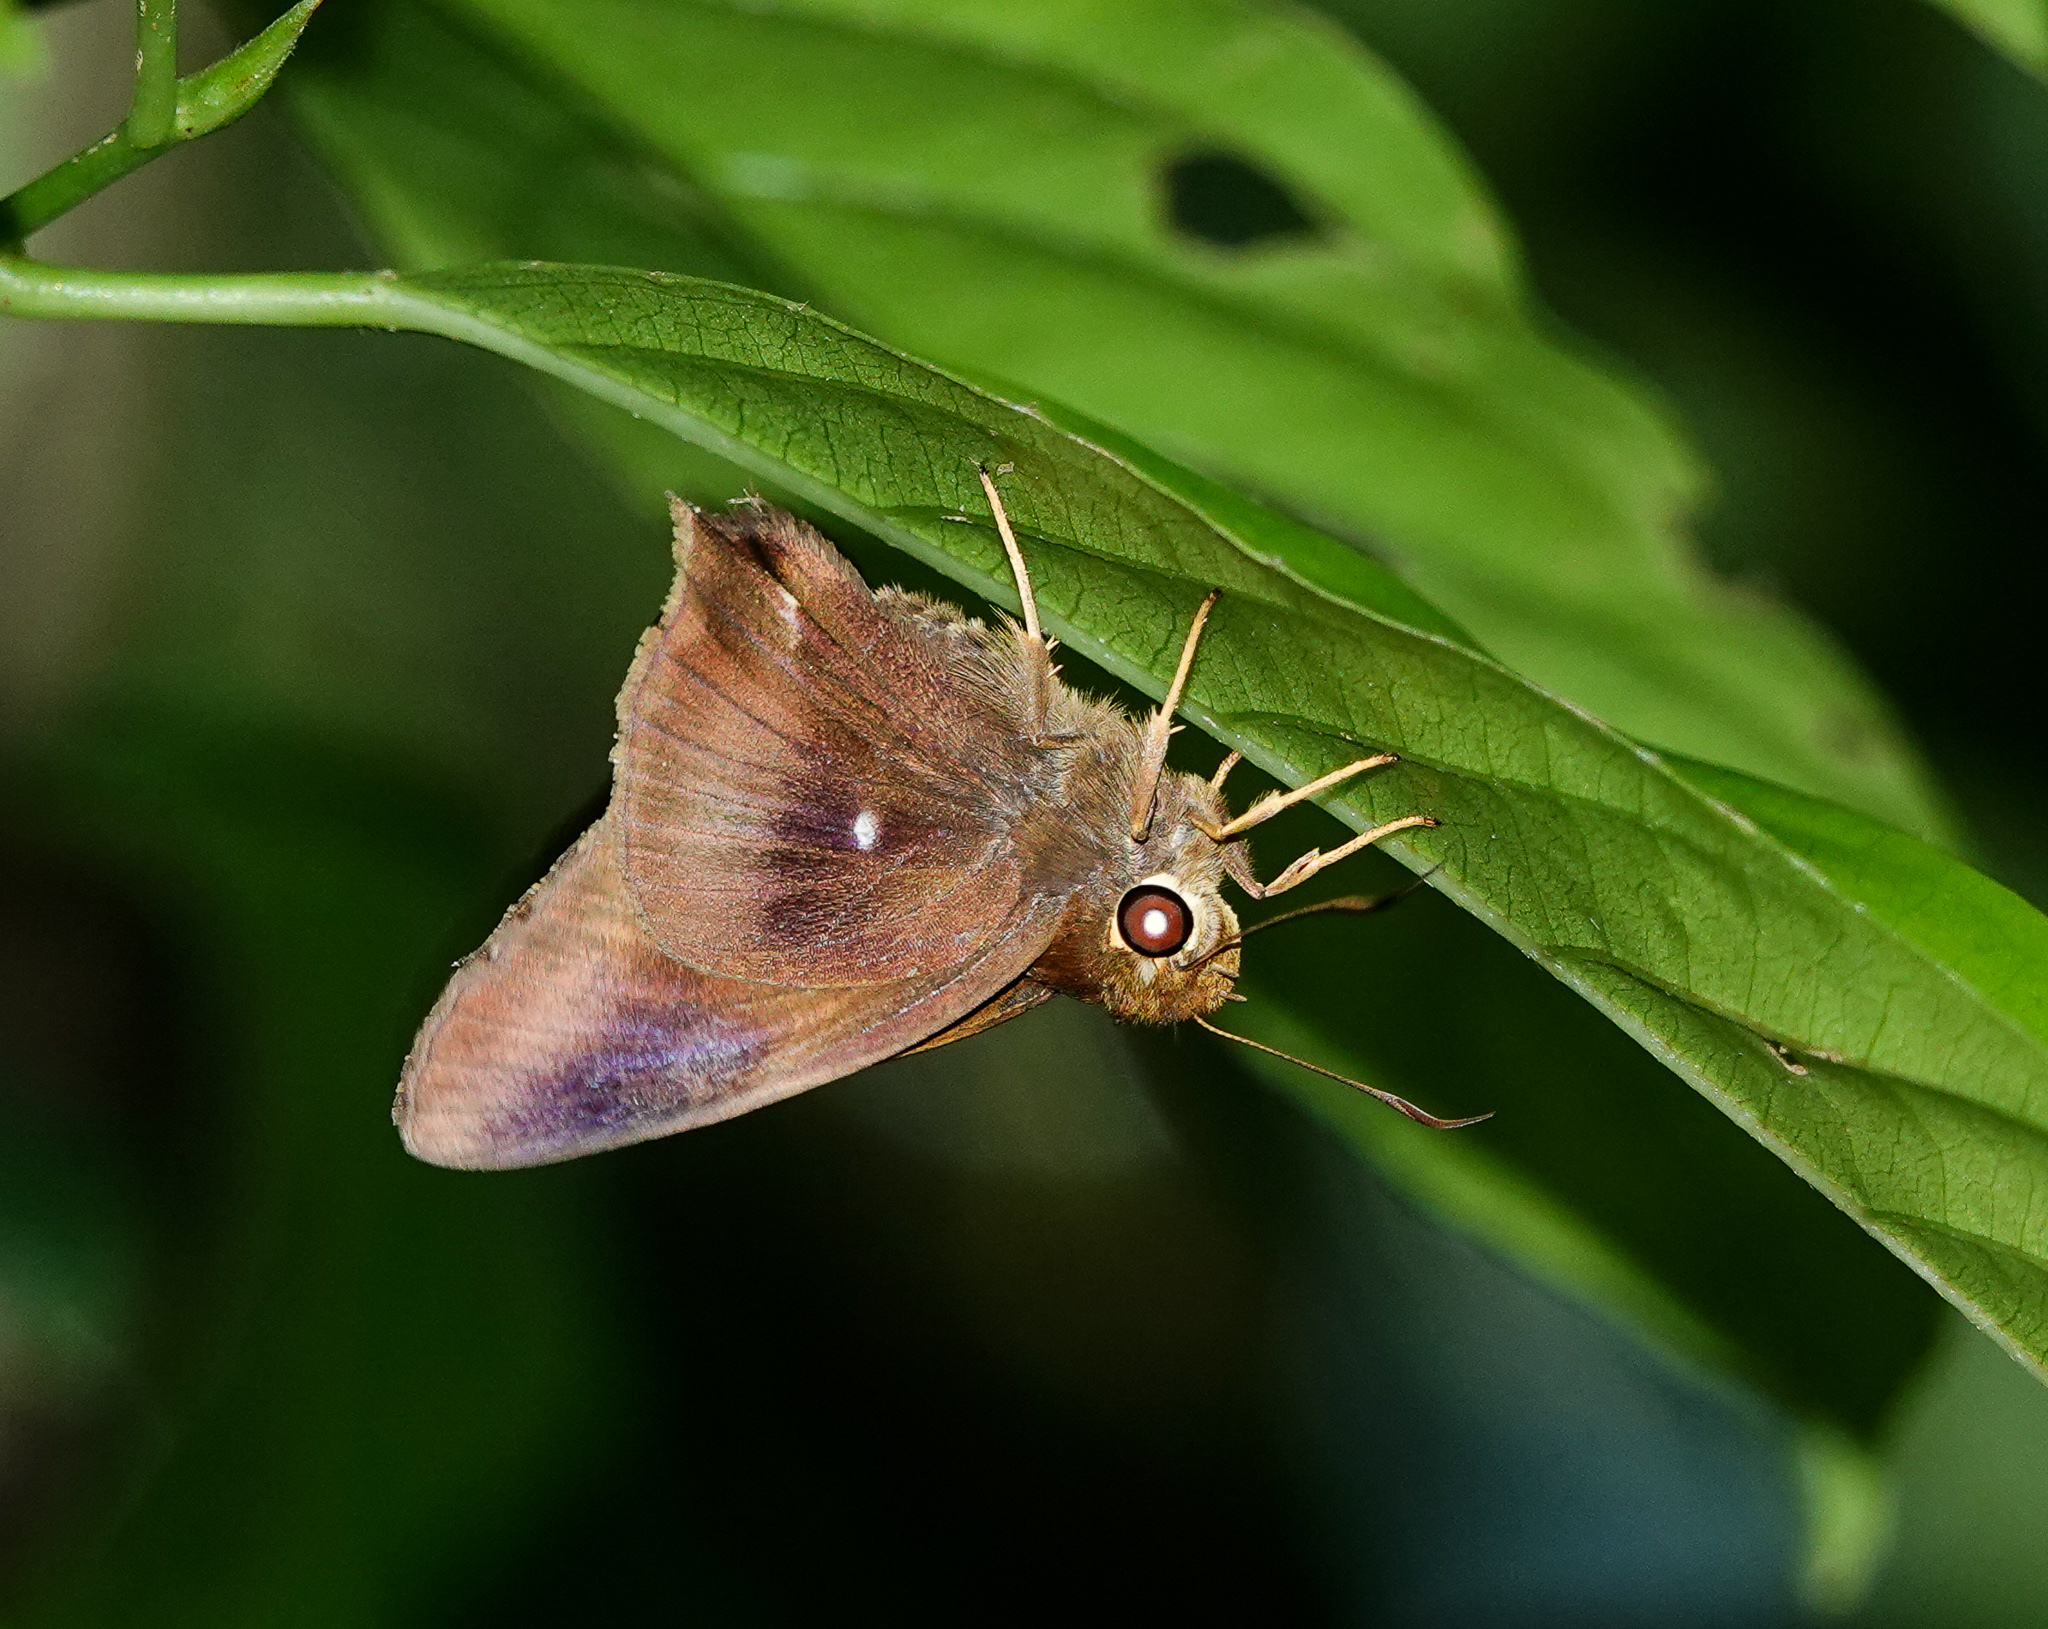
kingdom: Animalia
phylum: Arthropoda
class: Insecta
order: Lepidoptera
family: Hesperiidae
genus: Hasora
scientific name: Hasora badra
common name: Common awl
